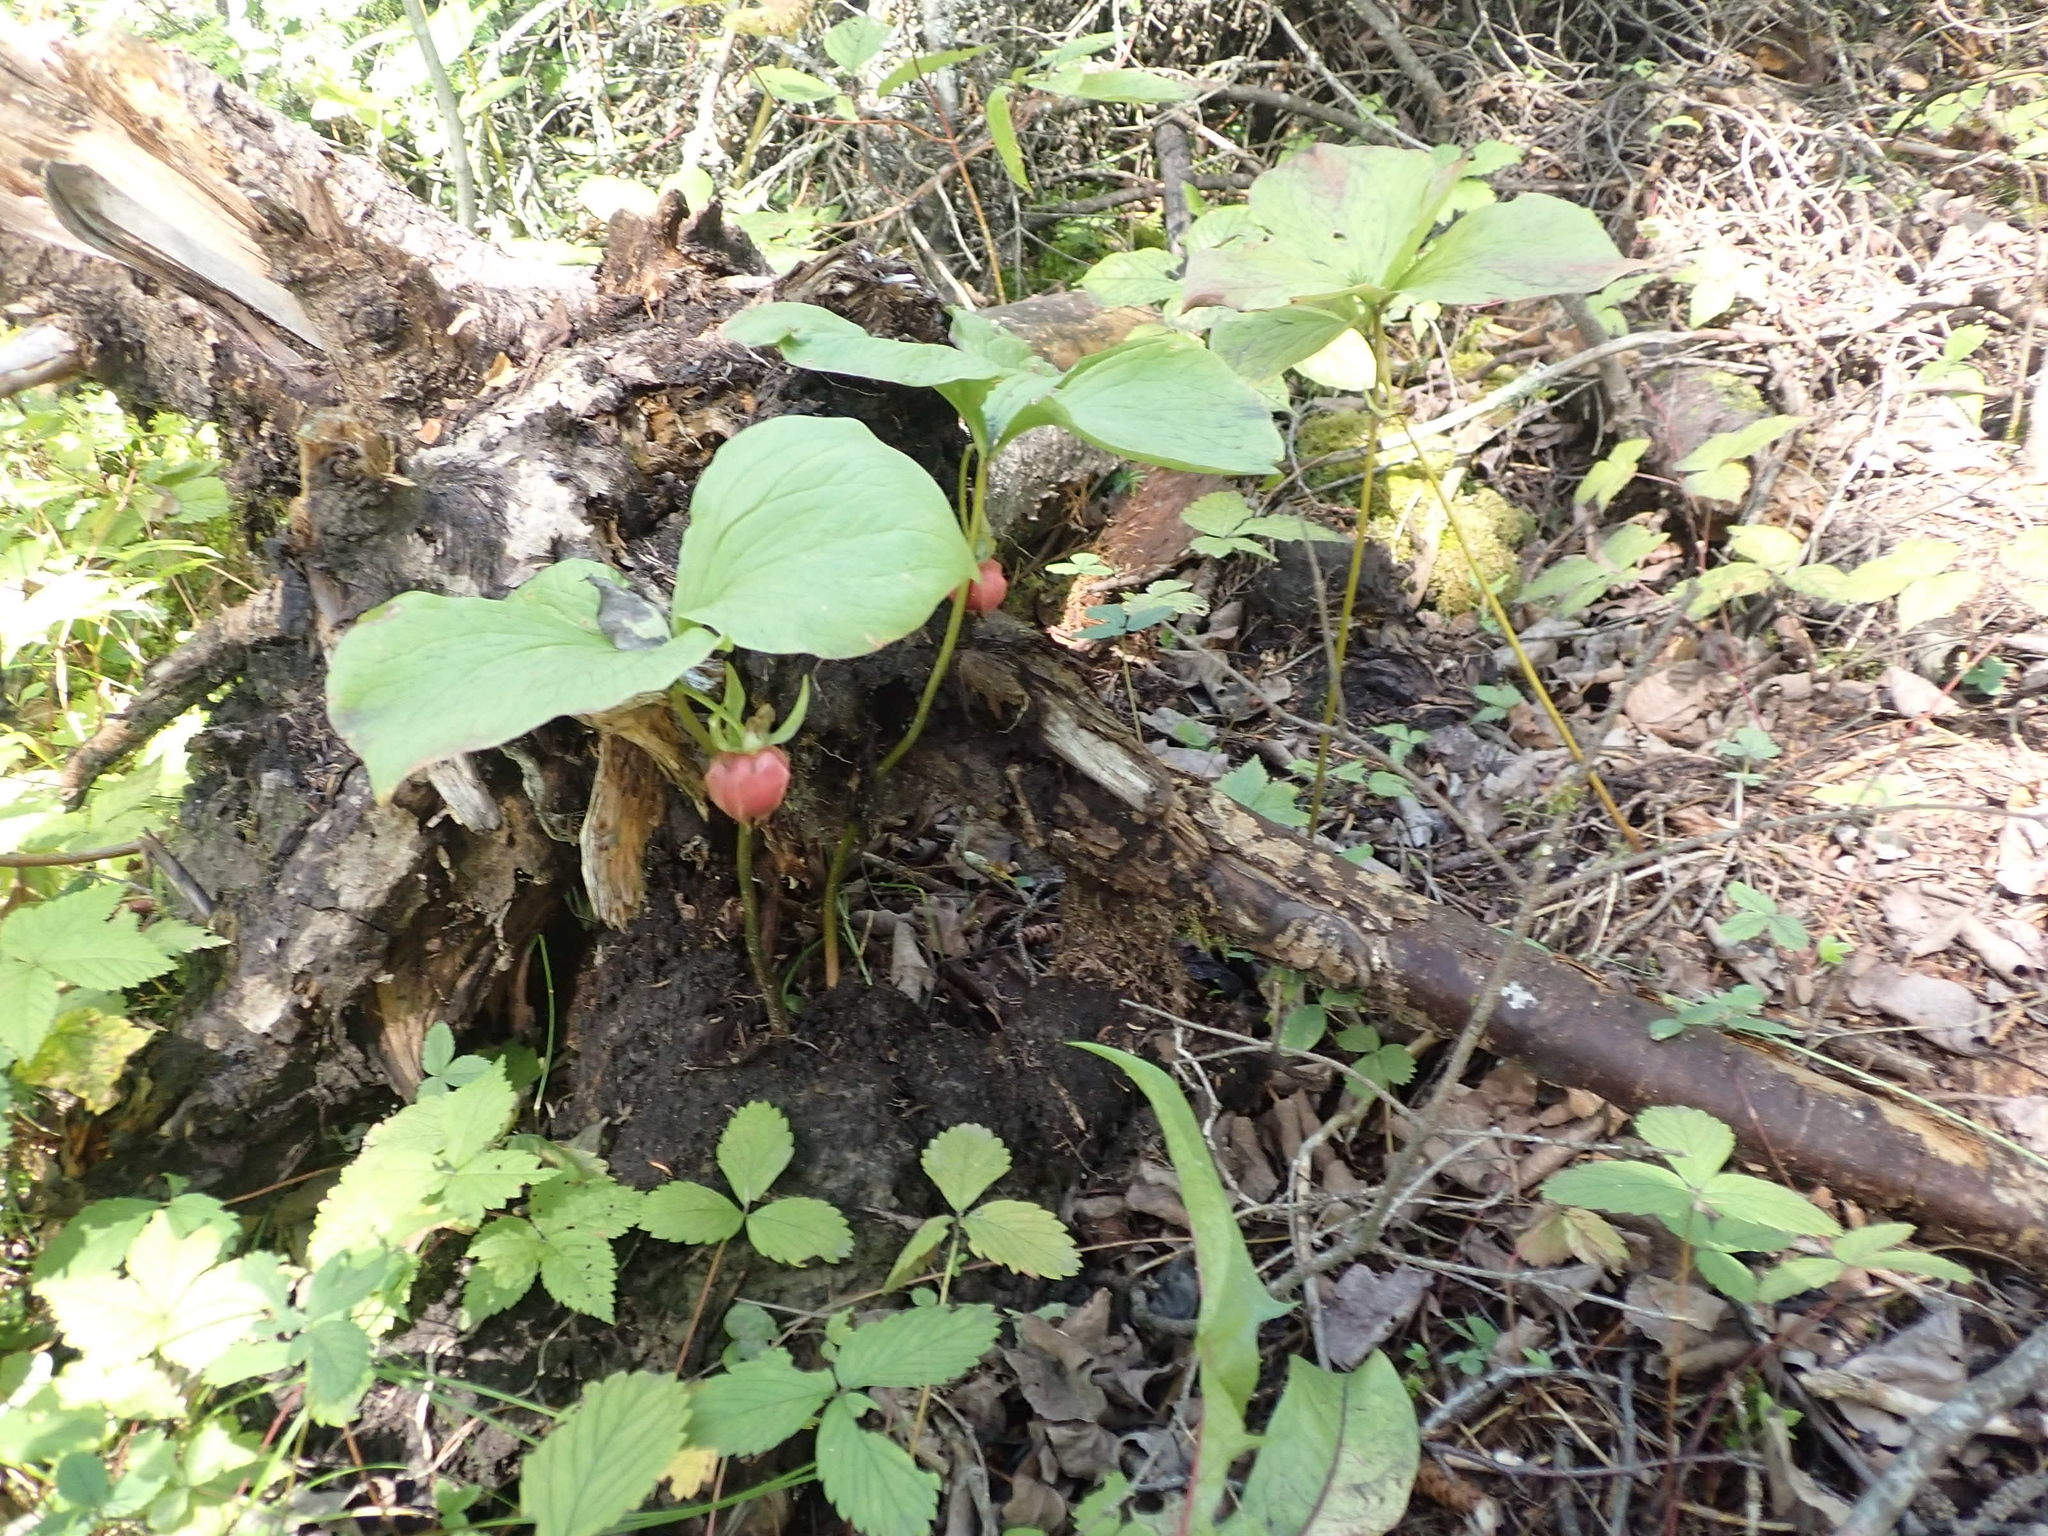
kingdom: Plantae
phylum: Tracheophyta
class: Liliopsida
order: Liliales
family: Melanthiaceae
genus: Trillium
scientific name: Trillium cernuum
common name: Nodding trillium
